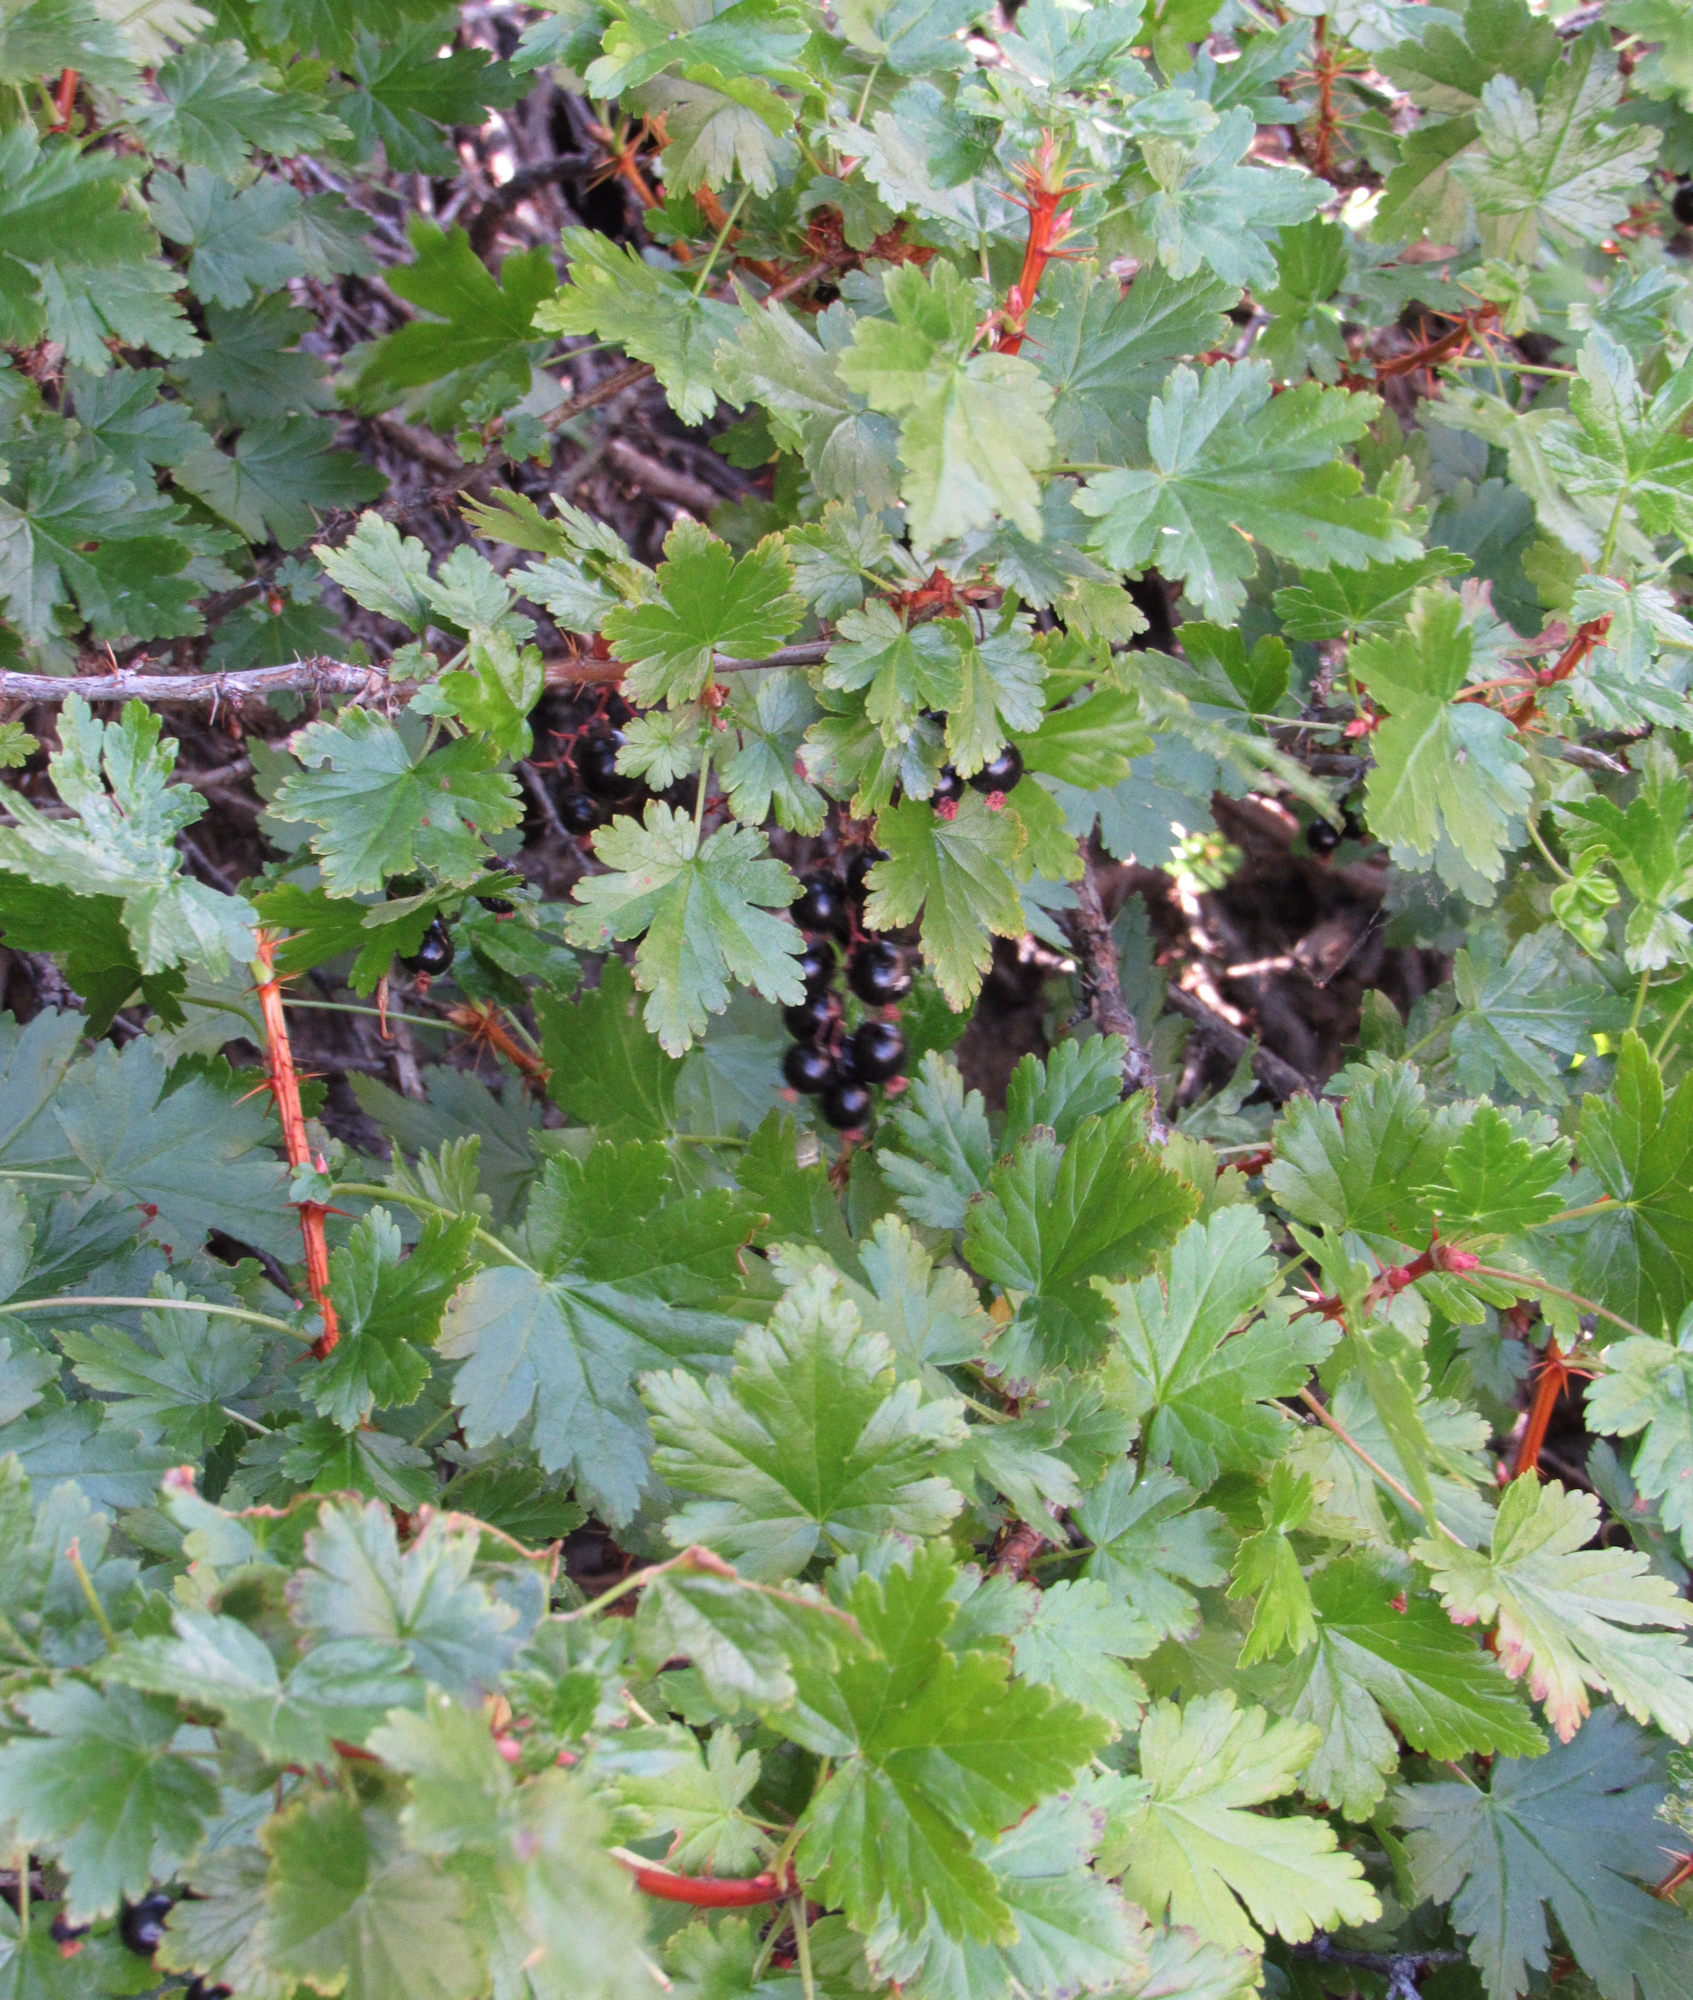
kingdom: Plantae
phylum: Tracheophyta
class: Magnoliopsida
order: Saxifragales
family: Grossulariaceae
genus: Ribes
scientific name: Ribes lacustre
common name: Black gooseberry
